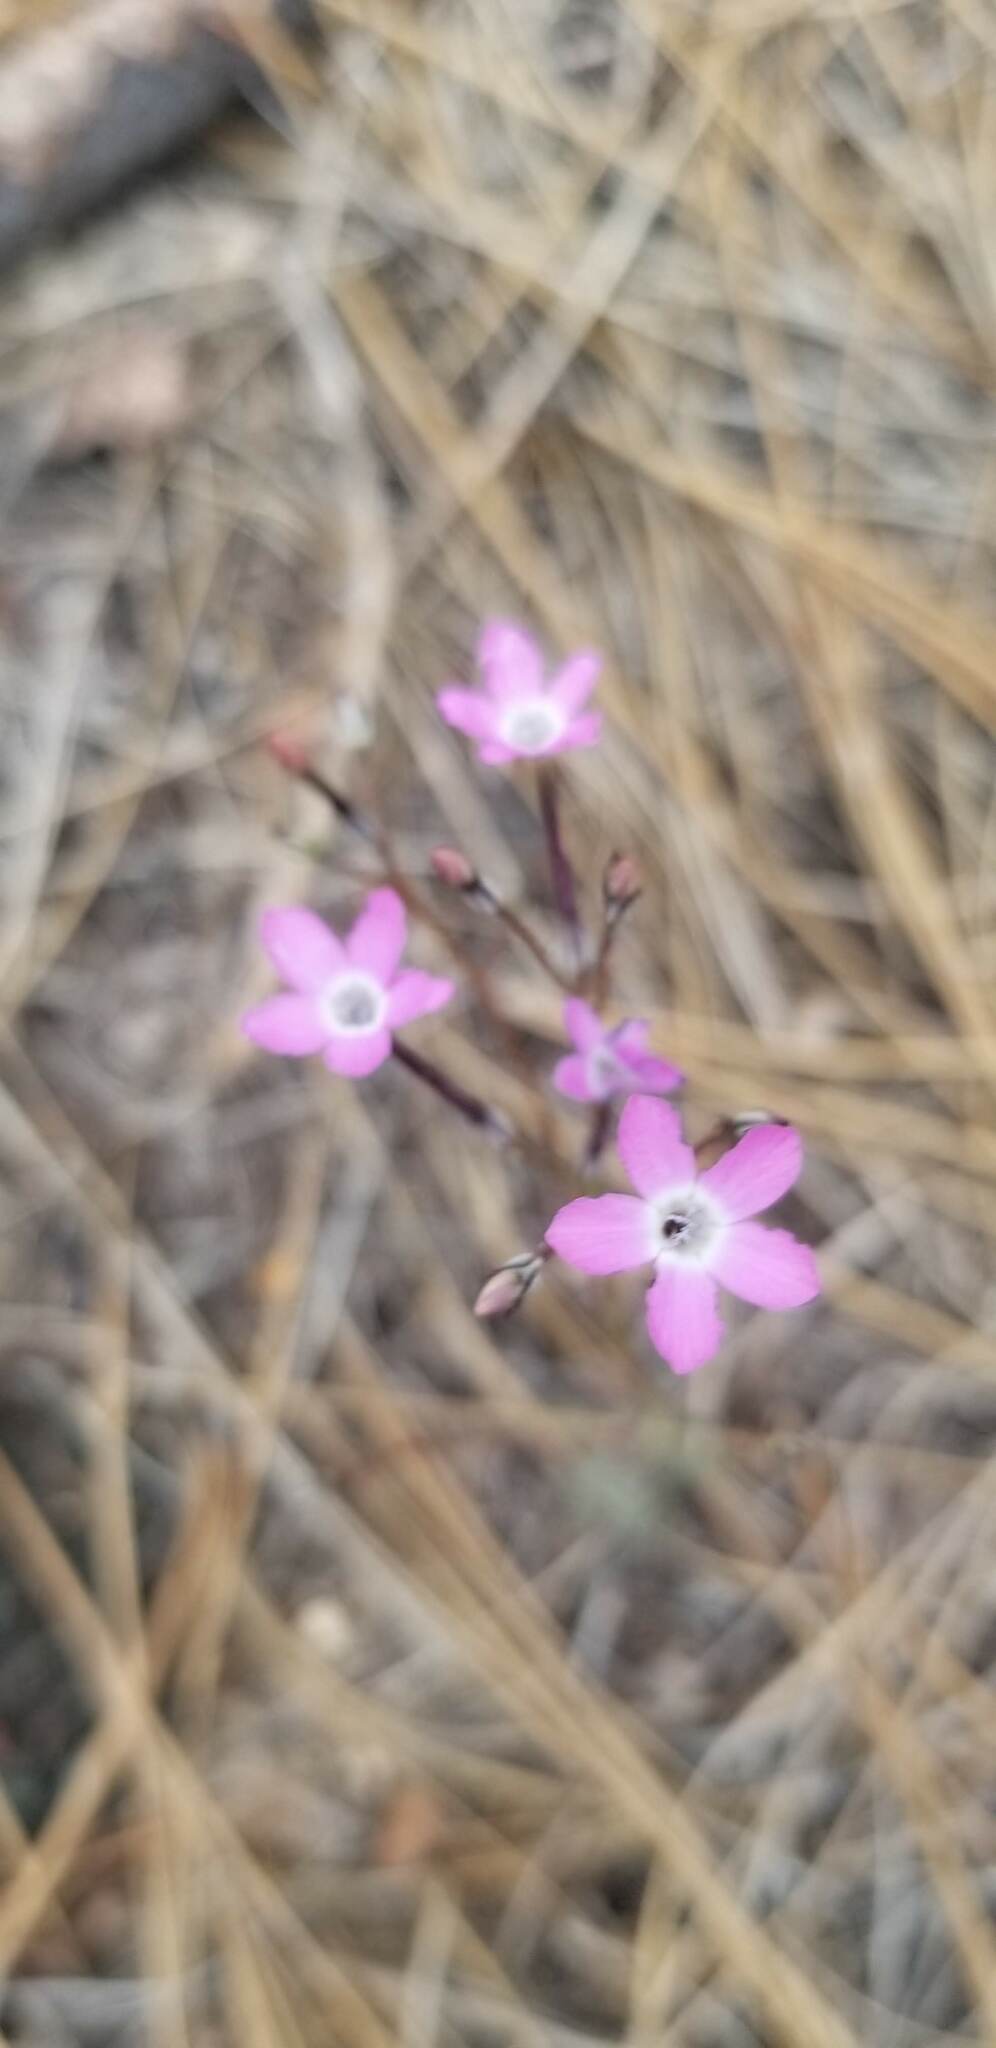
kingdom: Plantae
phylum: Tracheophyta
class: Magnoliopsida
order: Ericales
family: Polemoniaceae
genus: Gilia
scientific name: Gilia leptantha
